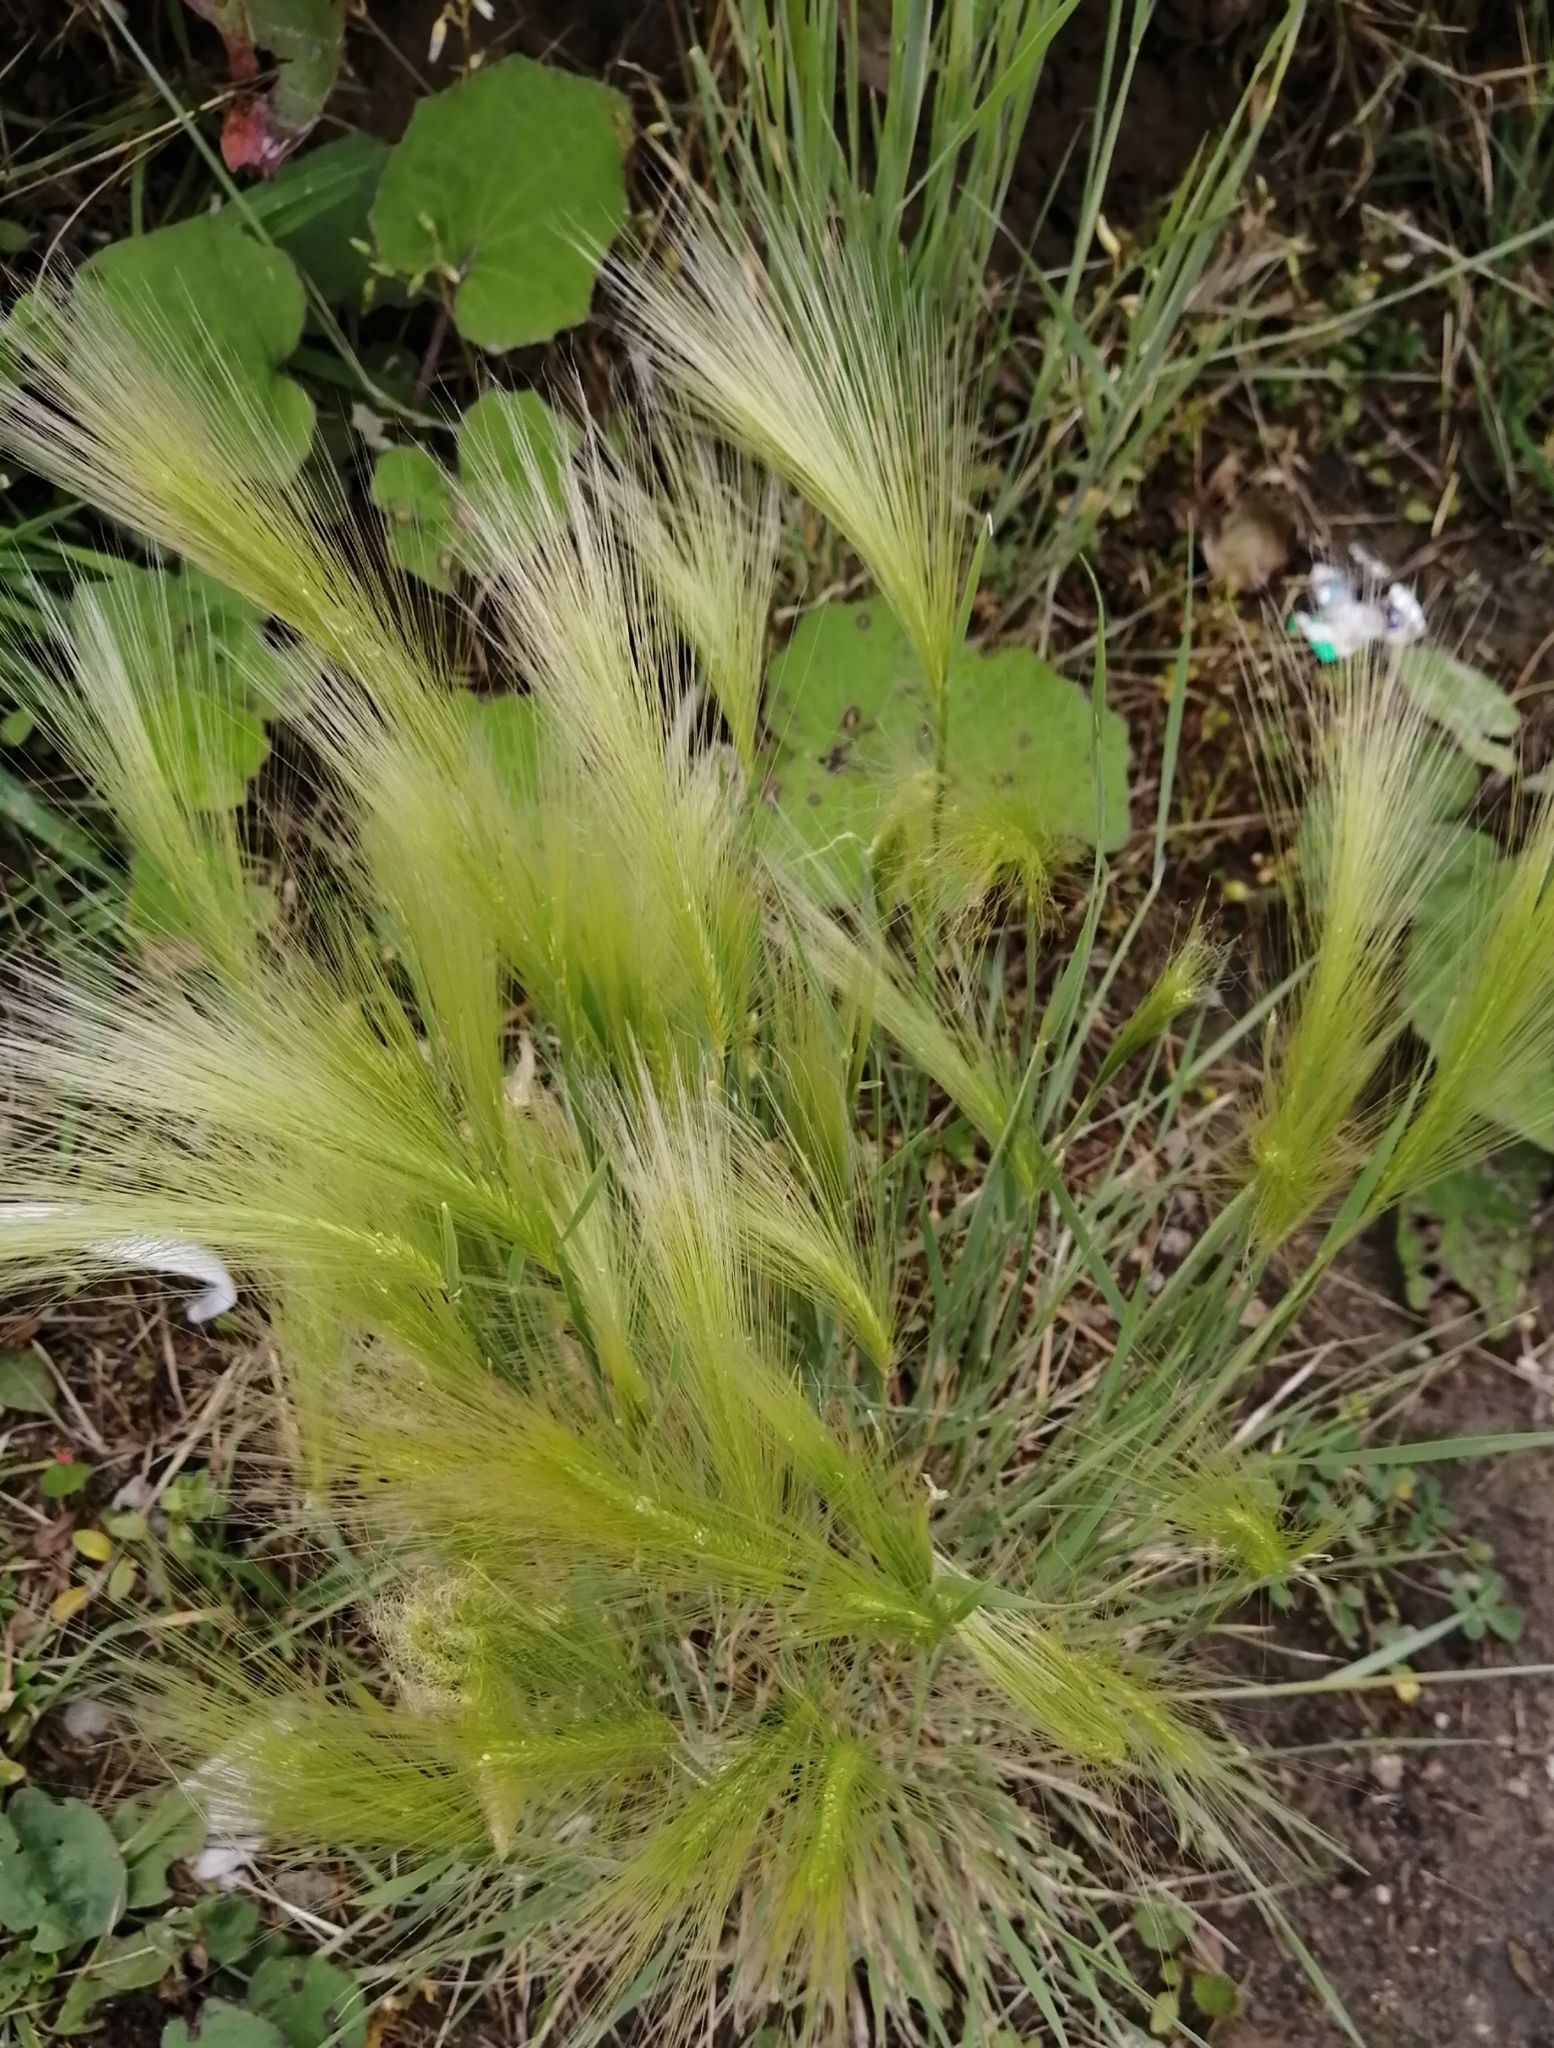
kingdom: Plantae
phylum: Tracheophyta
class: Liliopsida
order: Poales
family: Poaceae
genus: Hordeum
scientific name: Hordeum jubatum
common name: Foxtail barley
